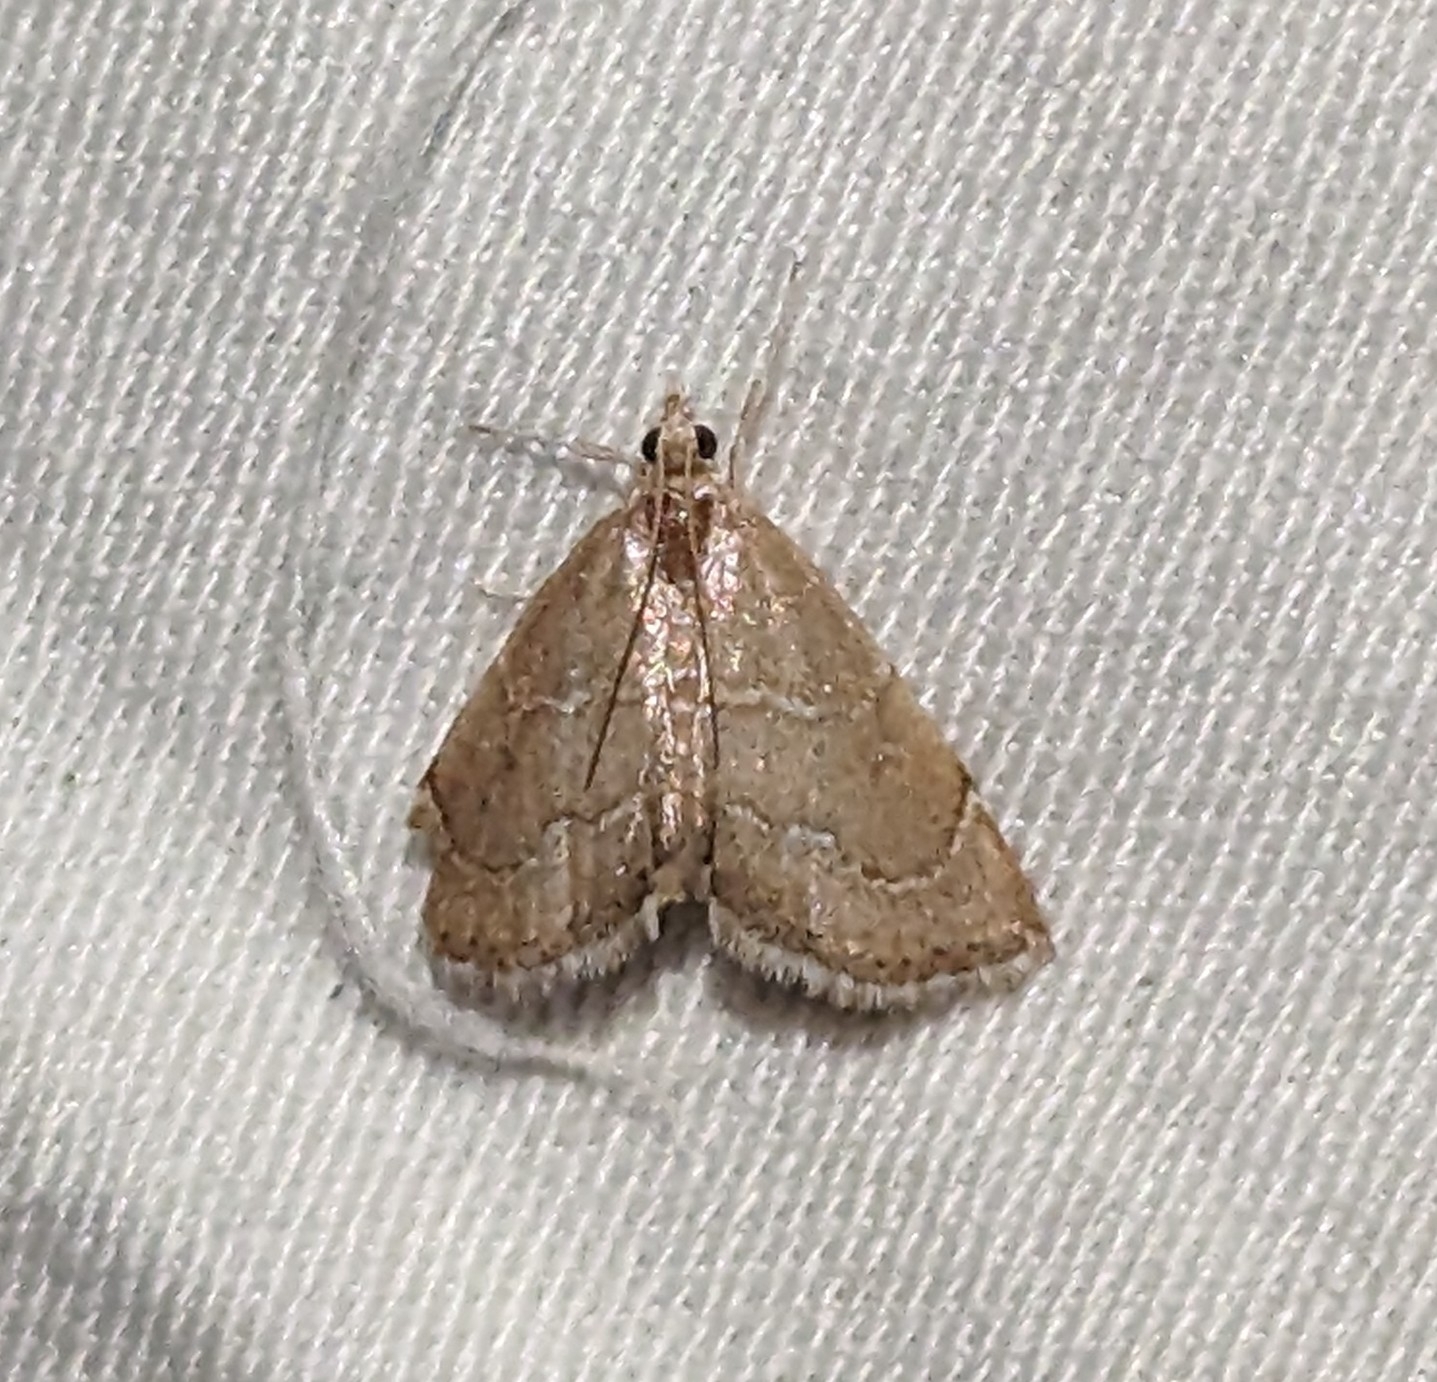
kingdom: Animalia
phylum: Arthropoda
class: Insecta
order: Lepidoptera
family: Crambidae
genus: Stegea
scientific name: Stegea salutalis
